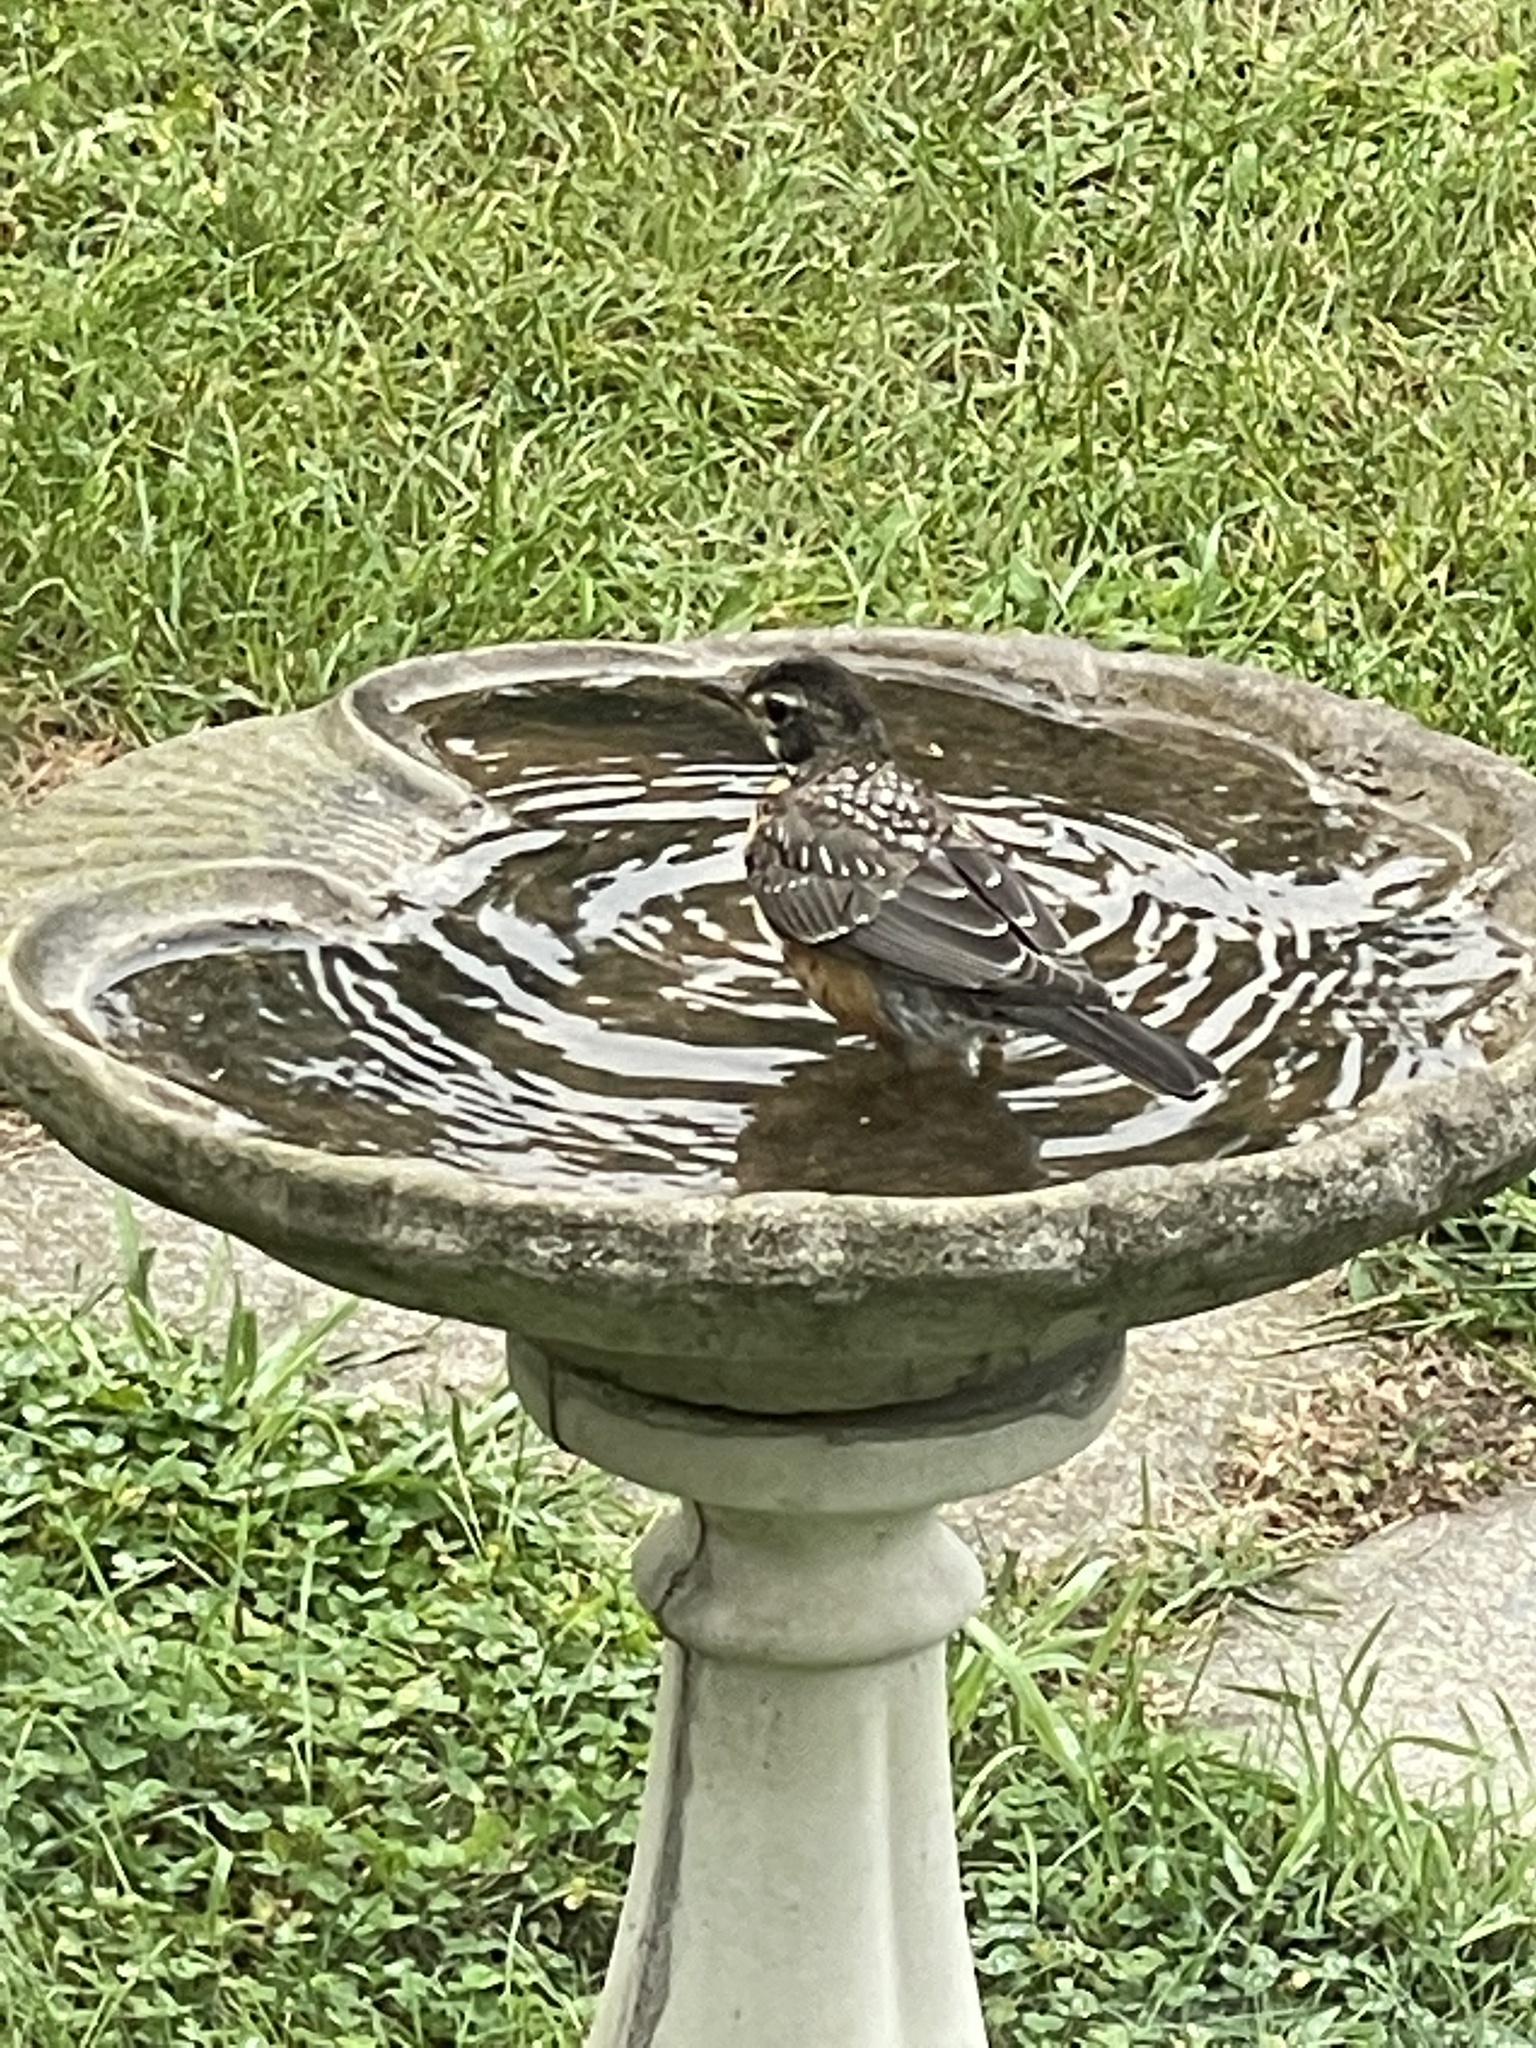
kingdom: Animalia
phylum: Chordata
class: Aves
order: Passeriformes
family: Turdidae
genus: Turdus
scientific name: Turdus migratorius
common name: American robin
